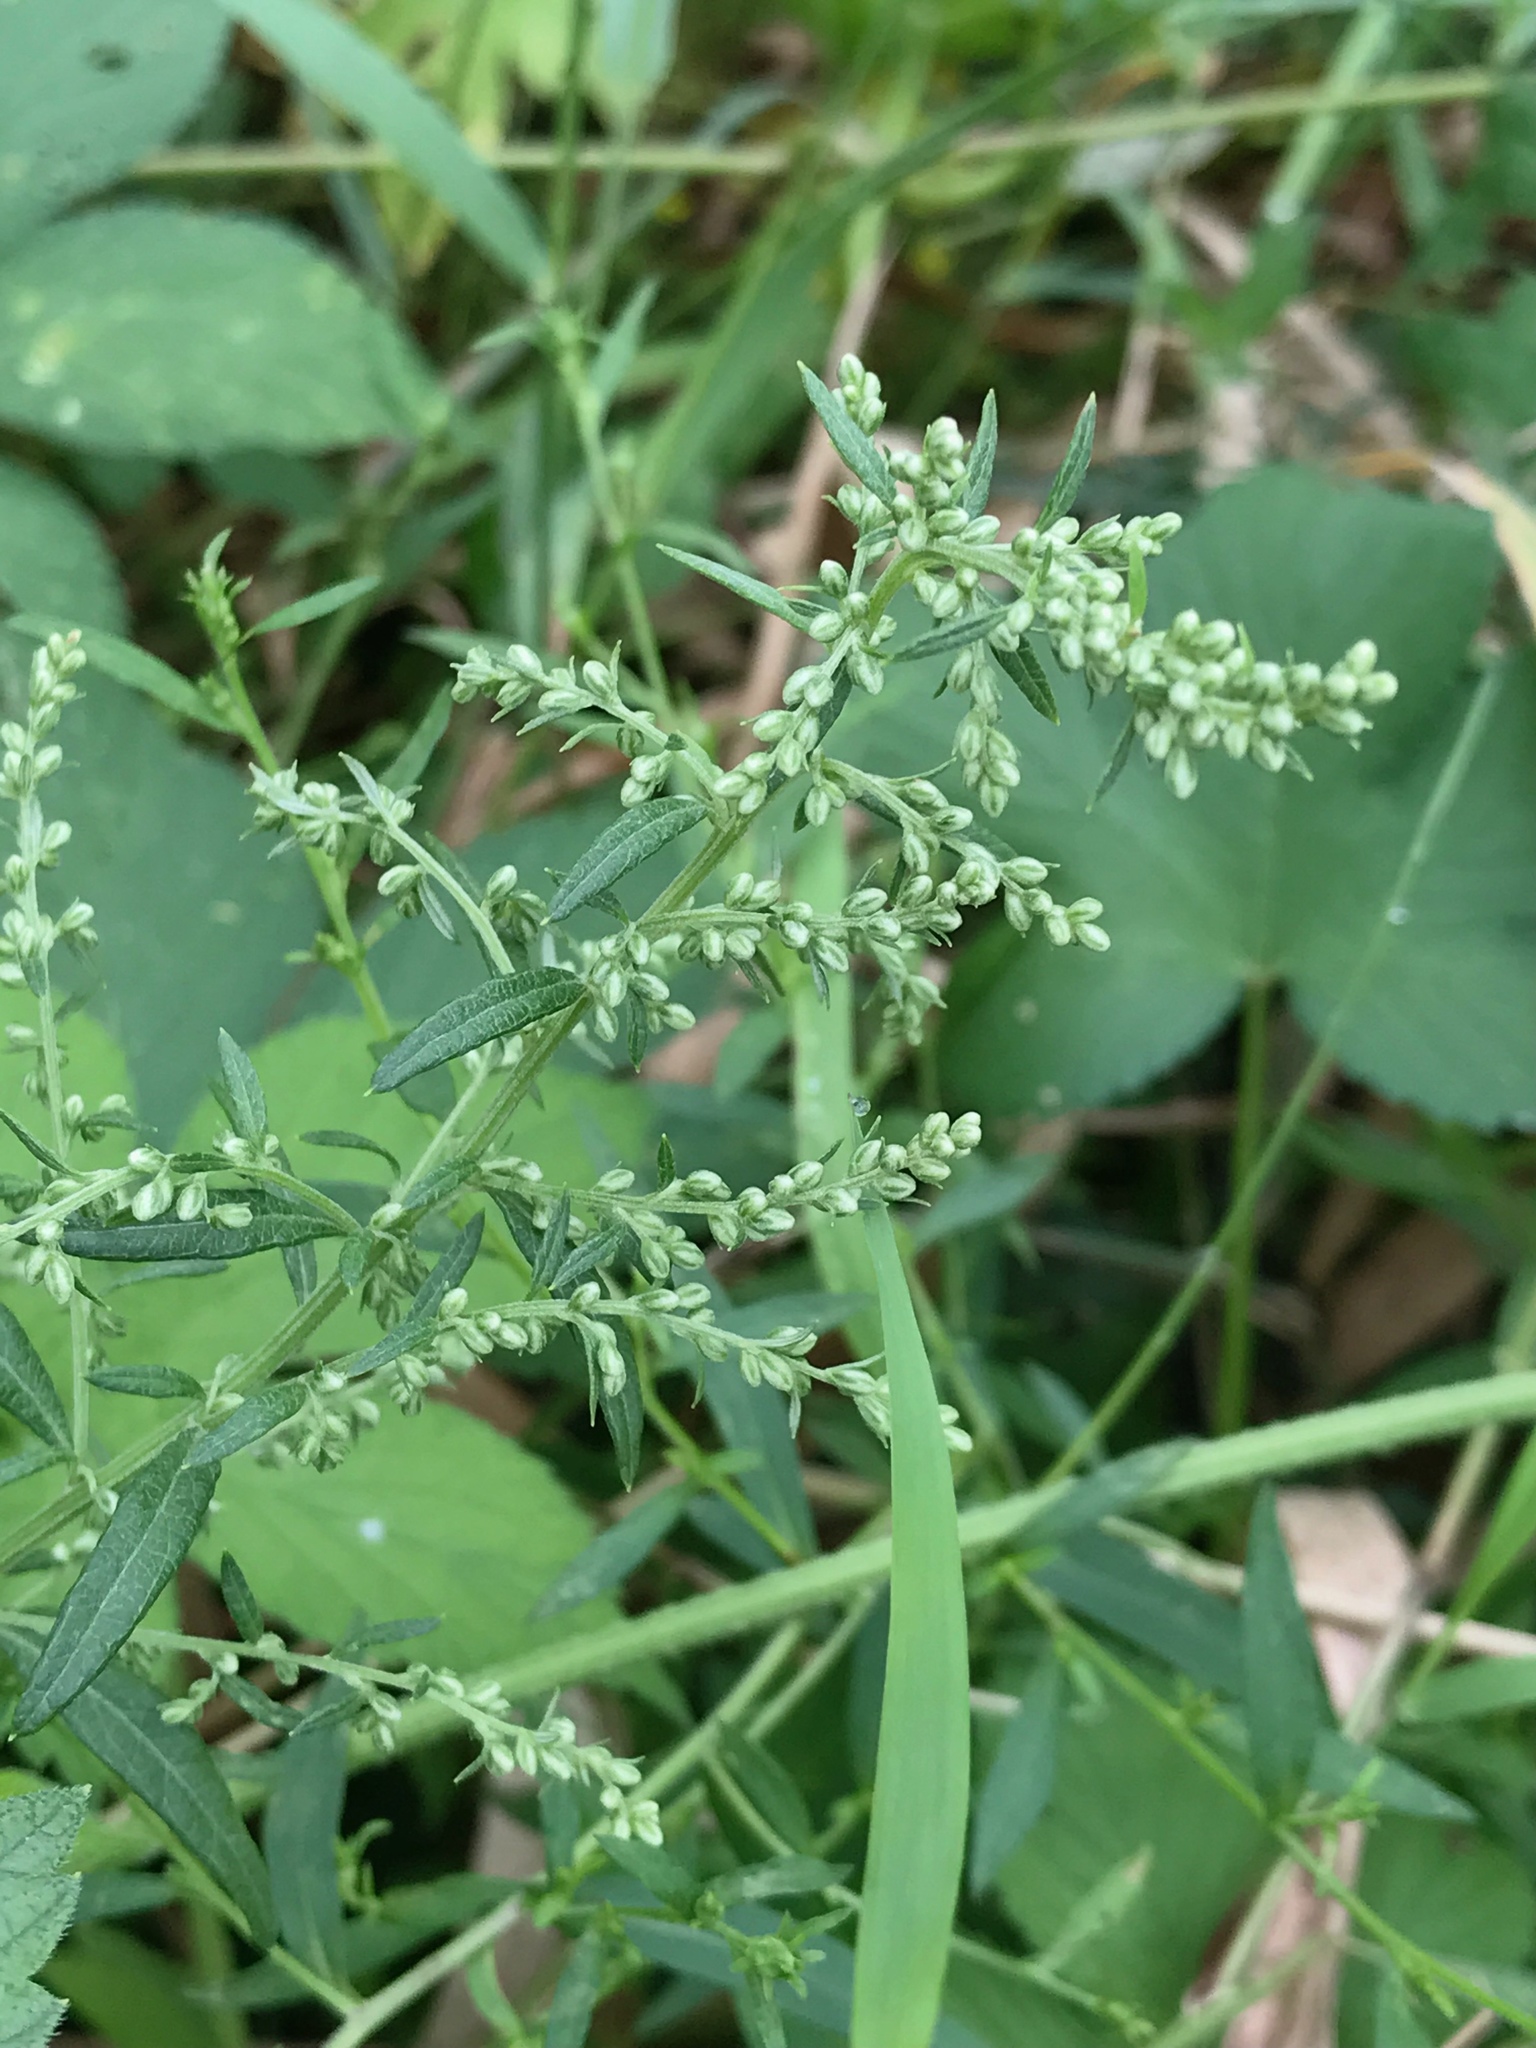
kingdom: Plantae
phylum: Tracheophyta
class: Magnoliopsida
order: Rosales
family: Cannabaceae
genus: Humulus
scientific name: Humulus scandens
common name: Japanese hop
